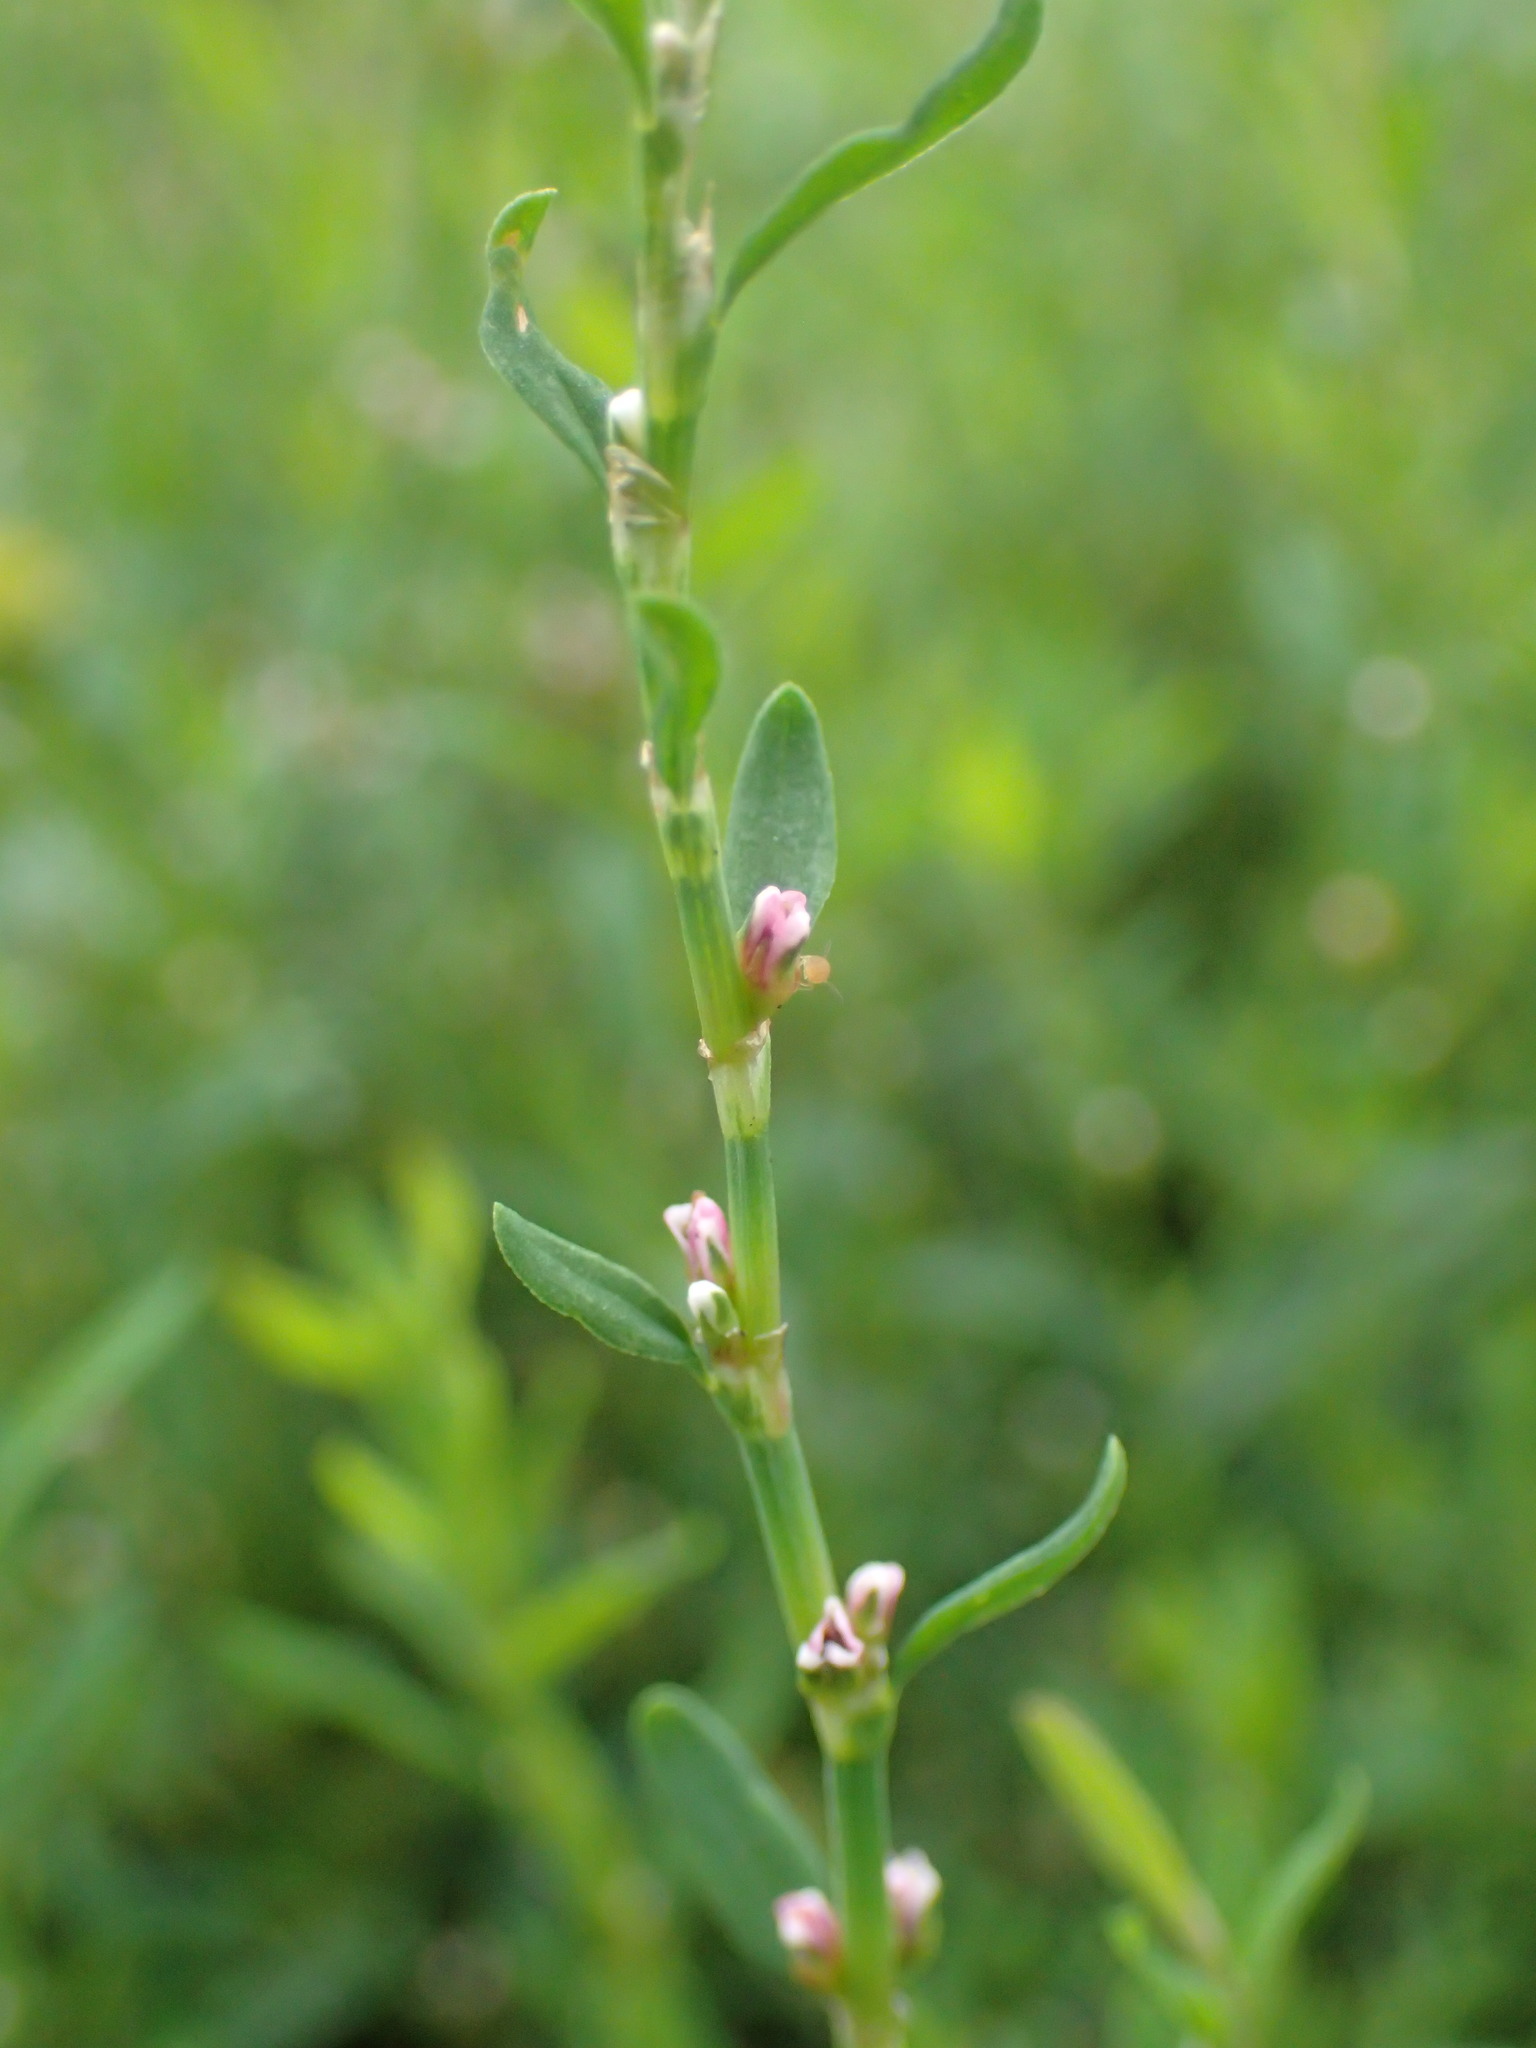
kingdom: Plantae
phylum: Tracheophyta
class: Magnoliopsida
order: Caryophyllales
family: Polygonaceae
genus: Polygonum
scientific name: Polygonum aviculare
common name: Prostrate knotweed
